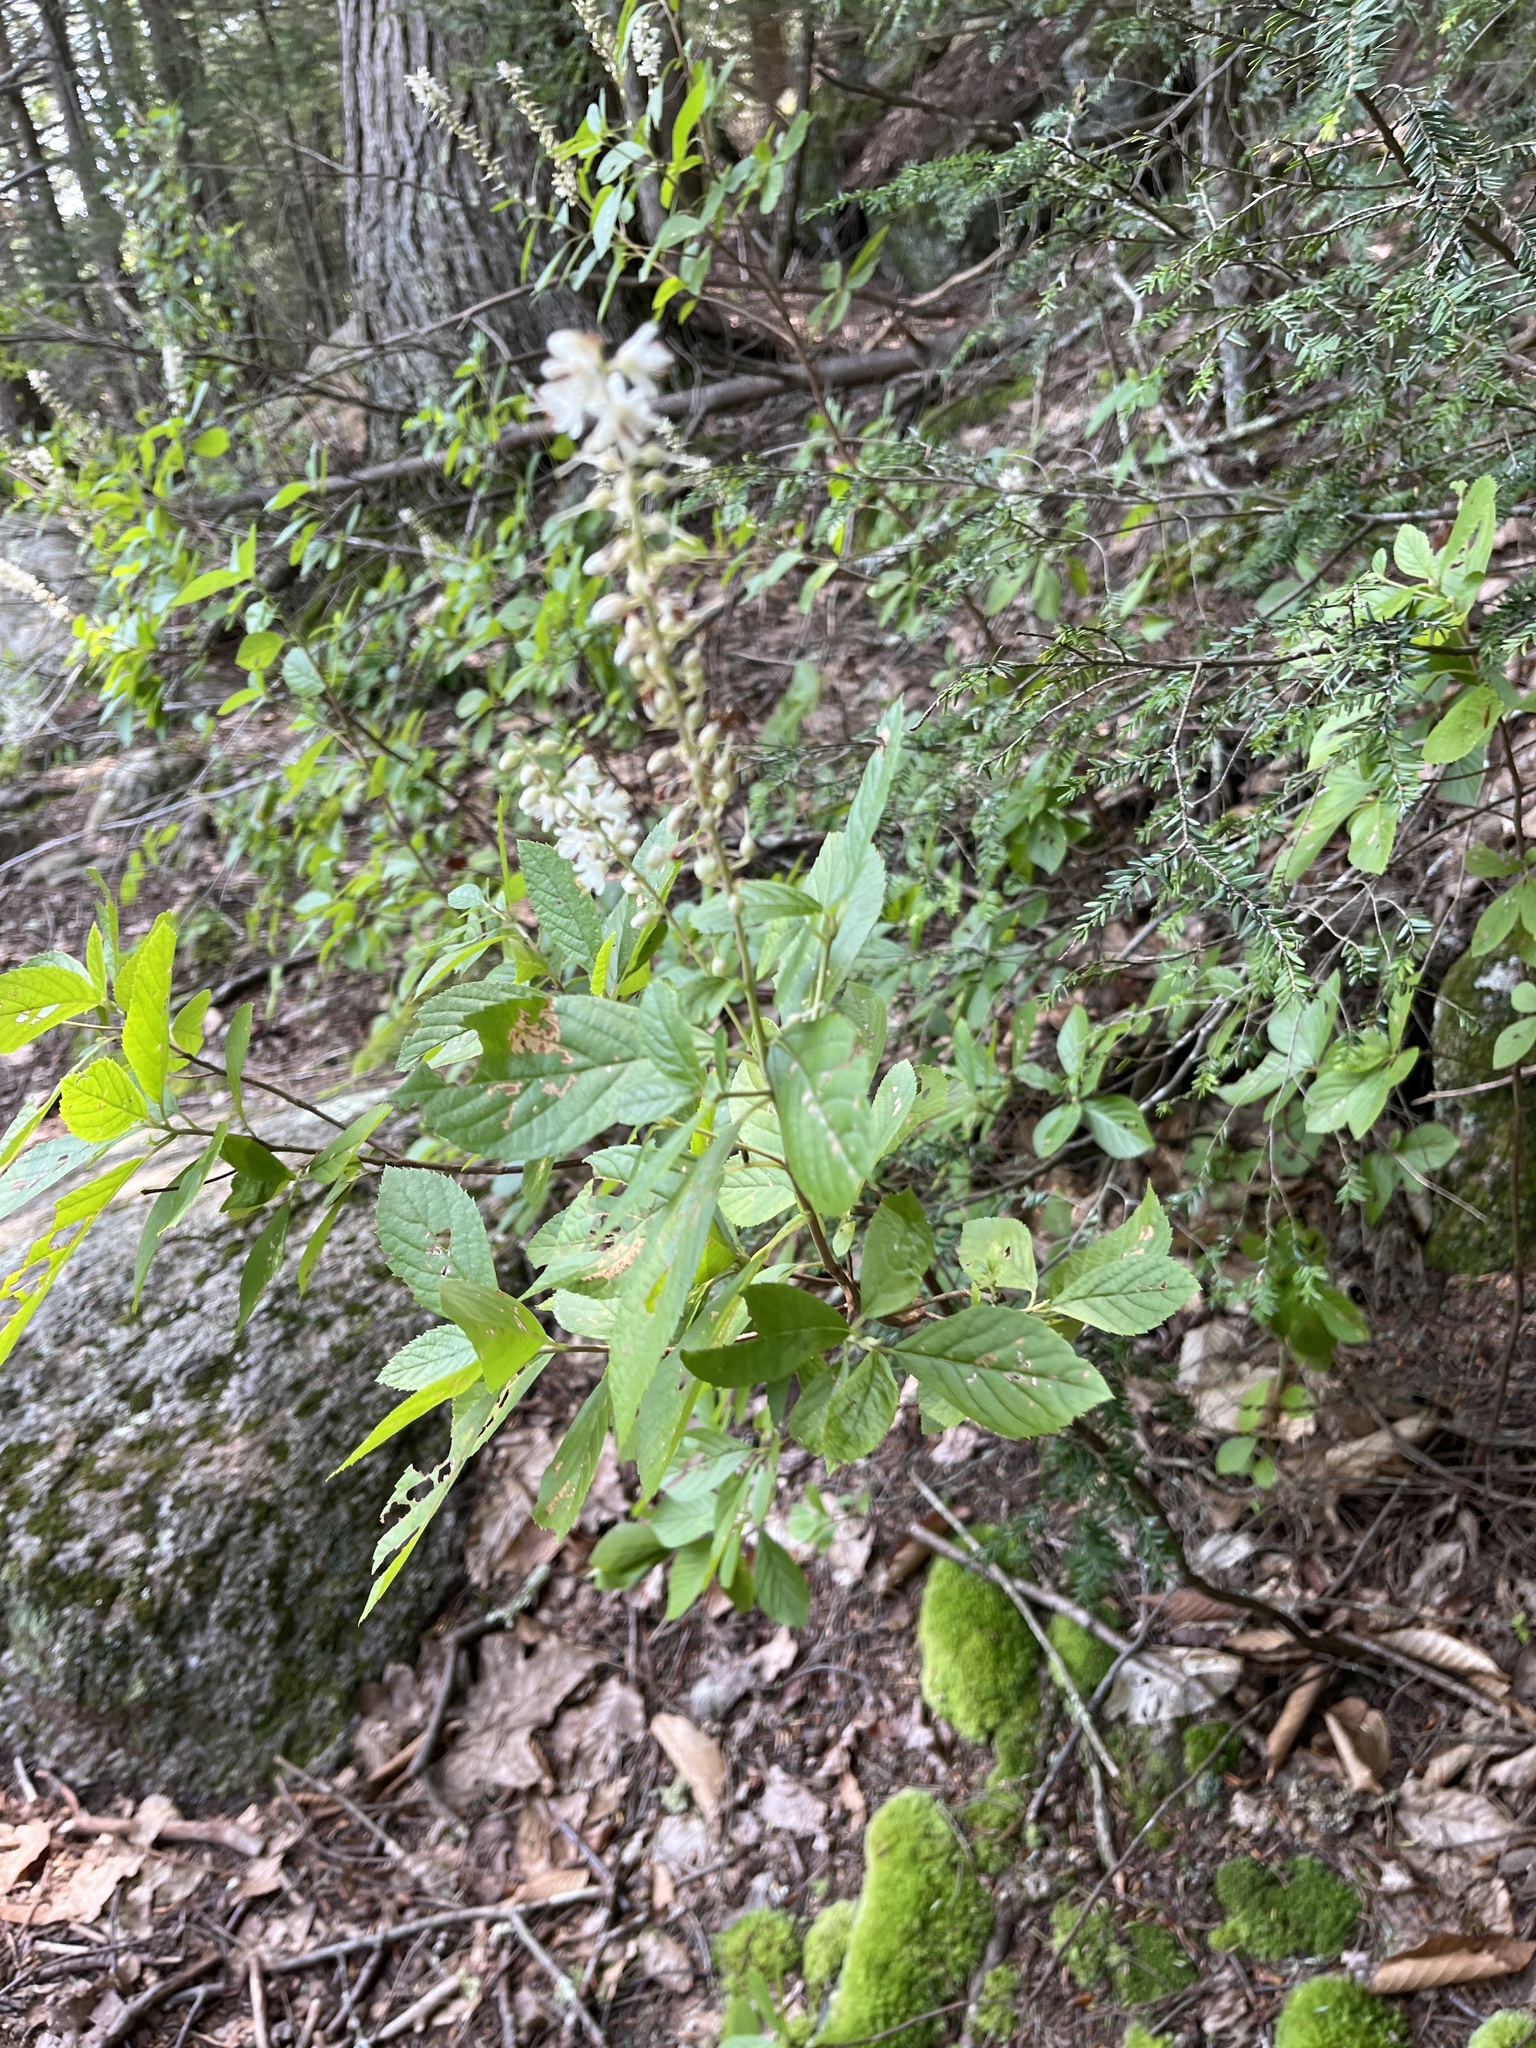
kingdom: Plantae
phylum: Tracheophyta
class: Magnoliopsida
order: Ericales
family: Clethraceae
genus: Clethra
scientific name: Clethra alnifolia
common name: Sweet pepperbush
